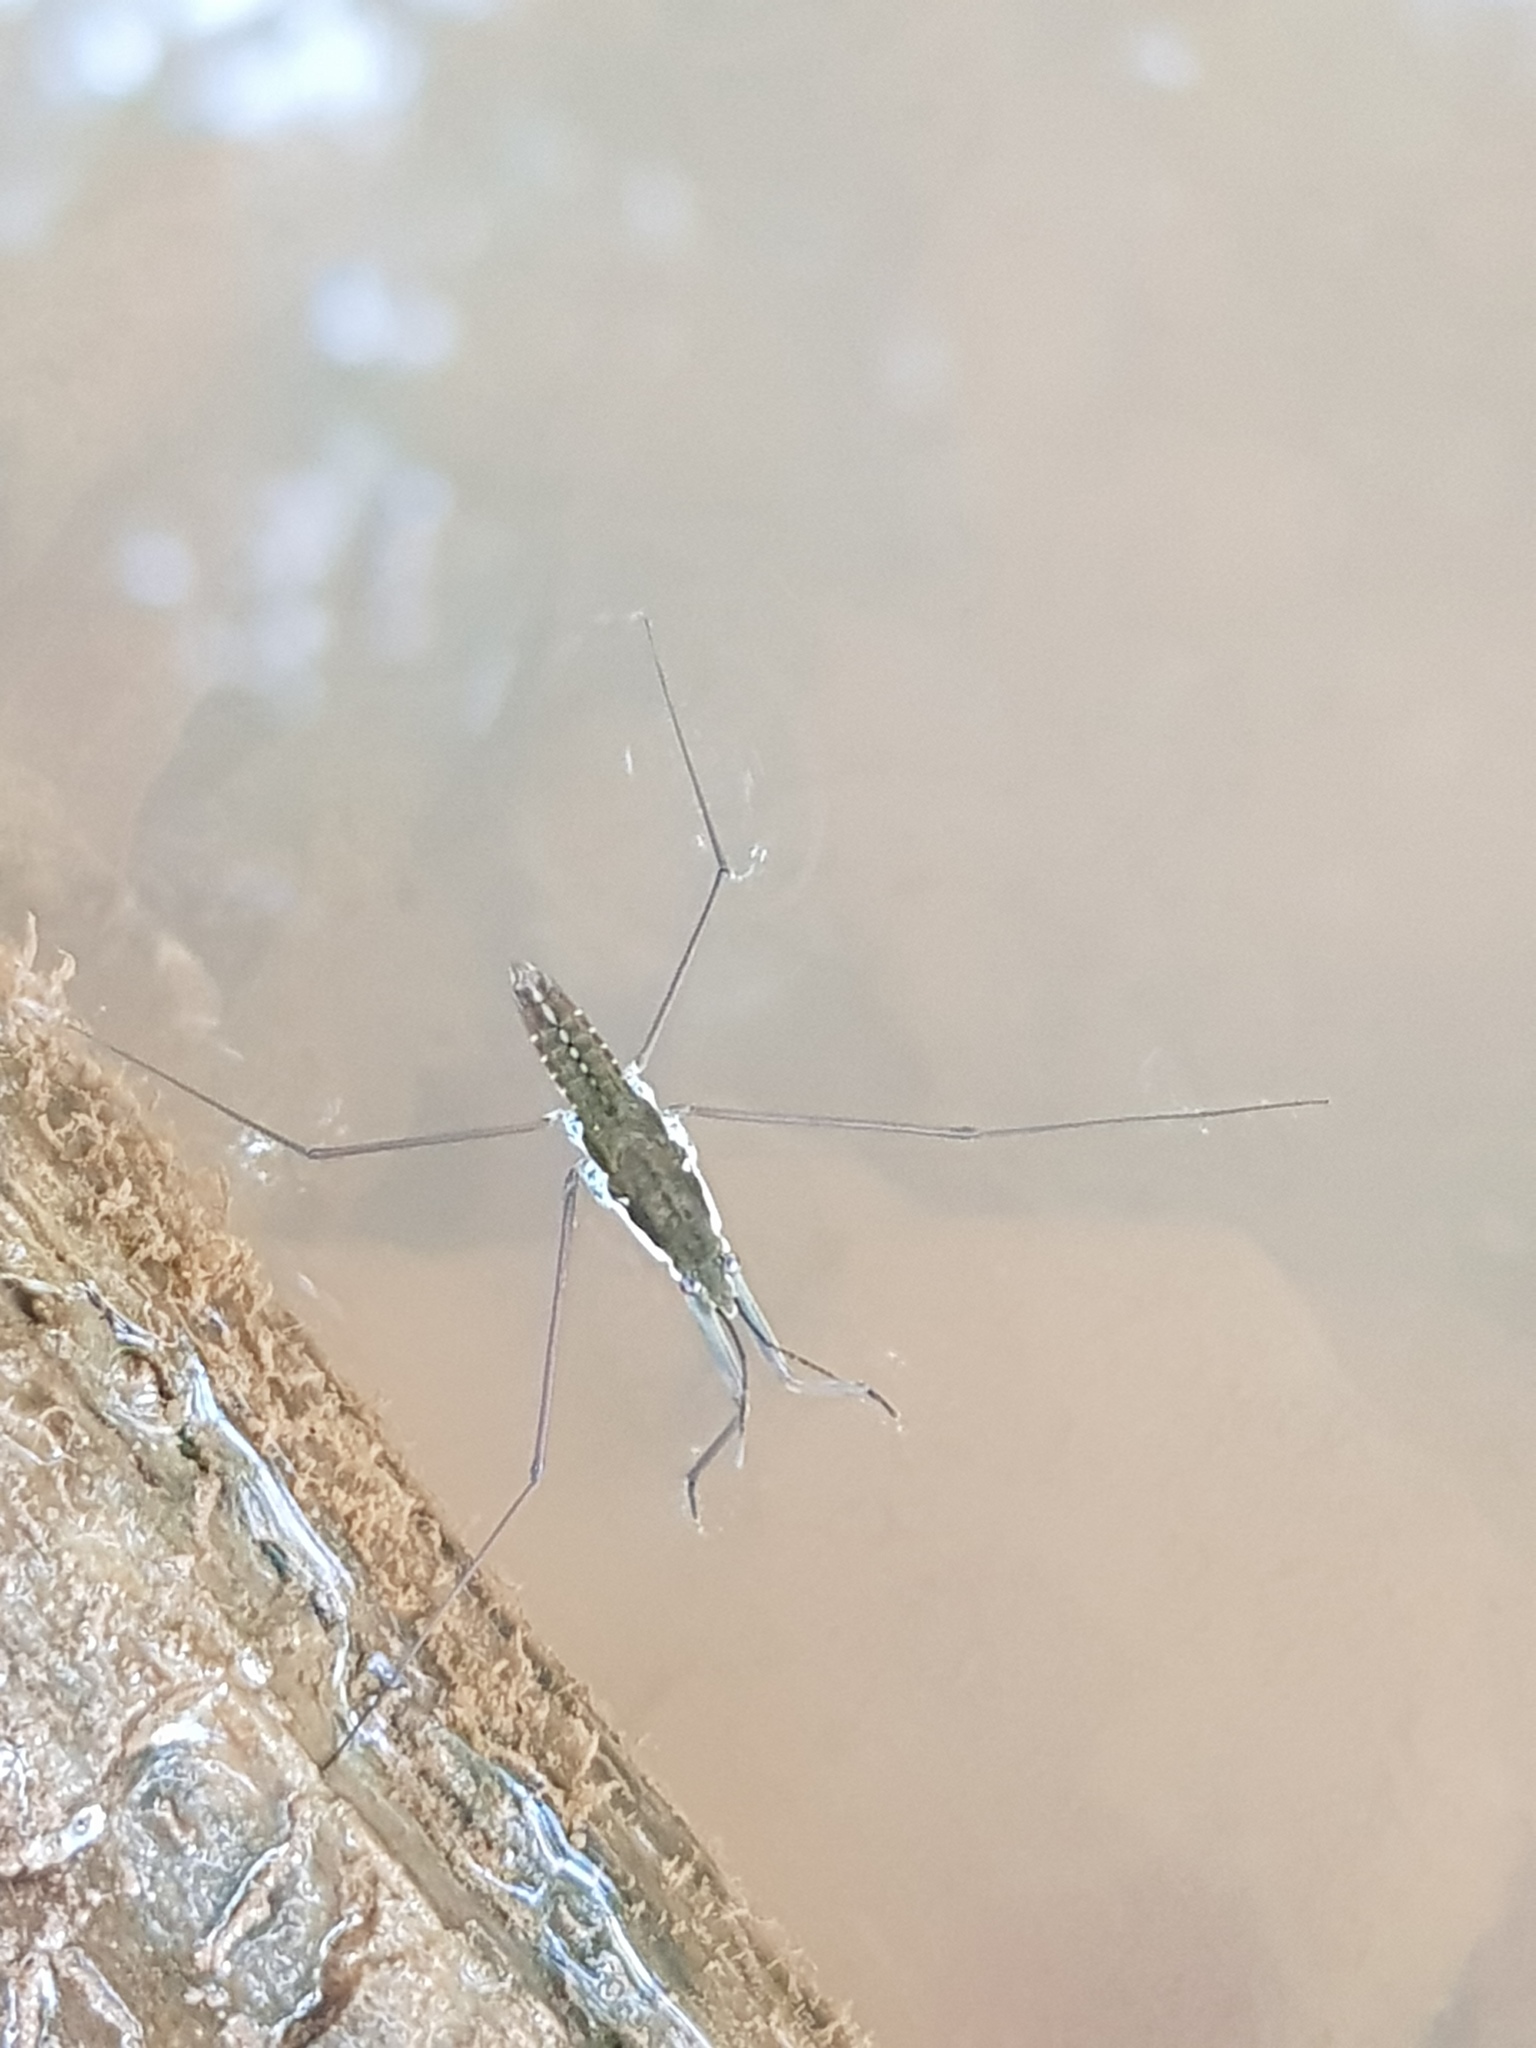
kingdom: Animalia
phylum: Arthropoda
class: Insecta
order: Hemiptera
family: Gerridae
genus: Aquarius
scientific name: Aquarius
